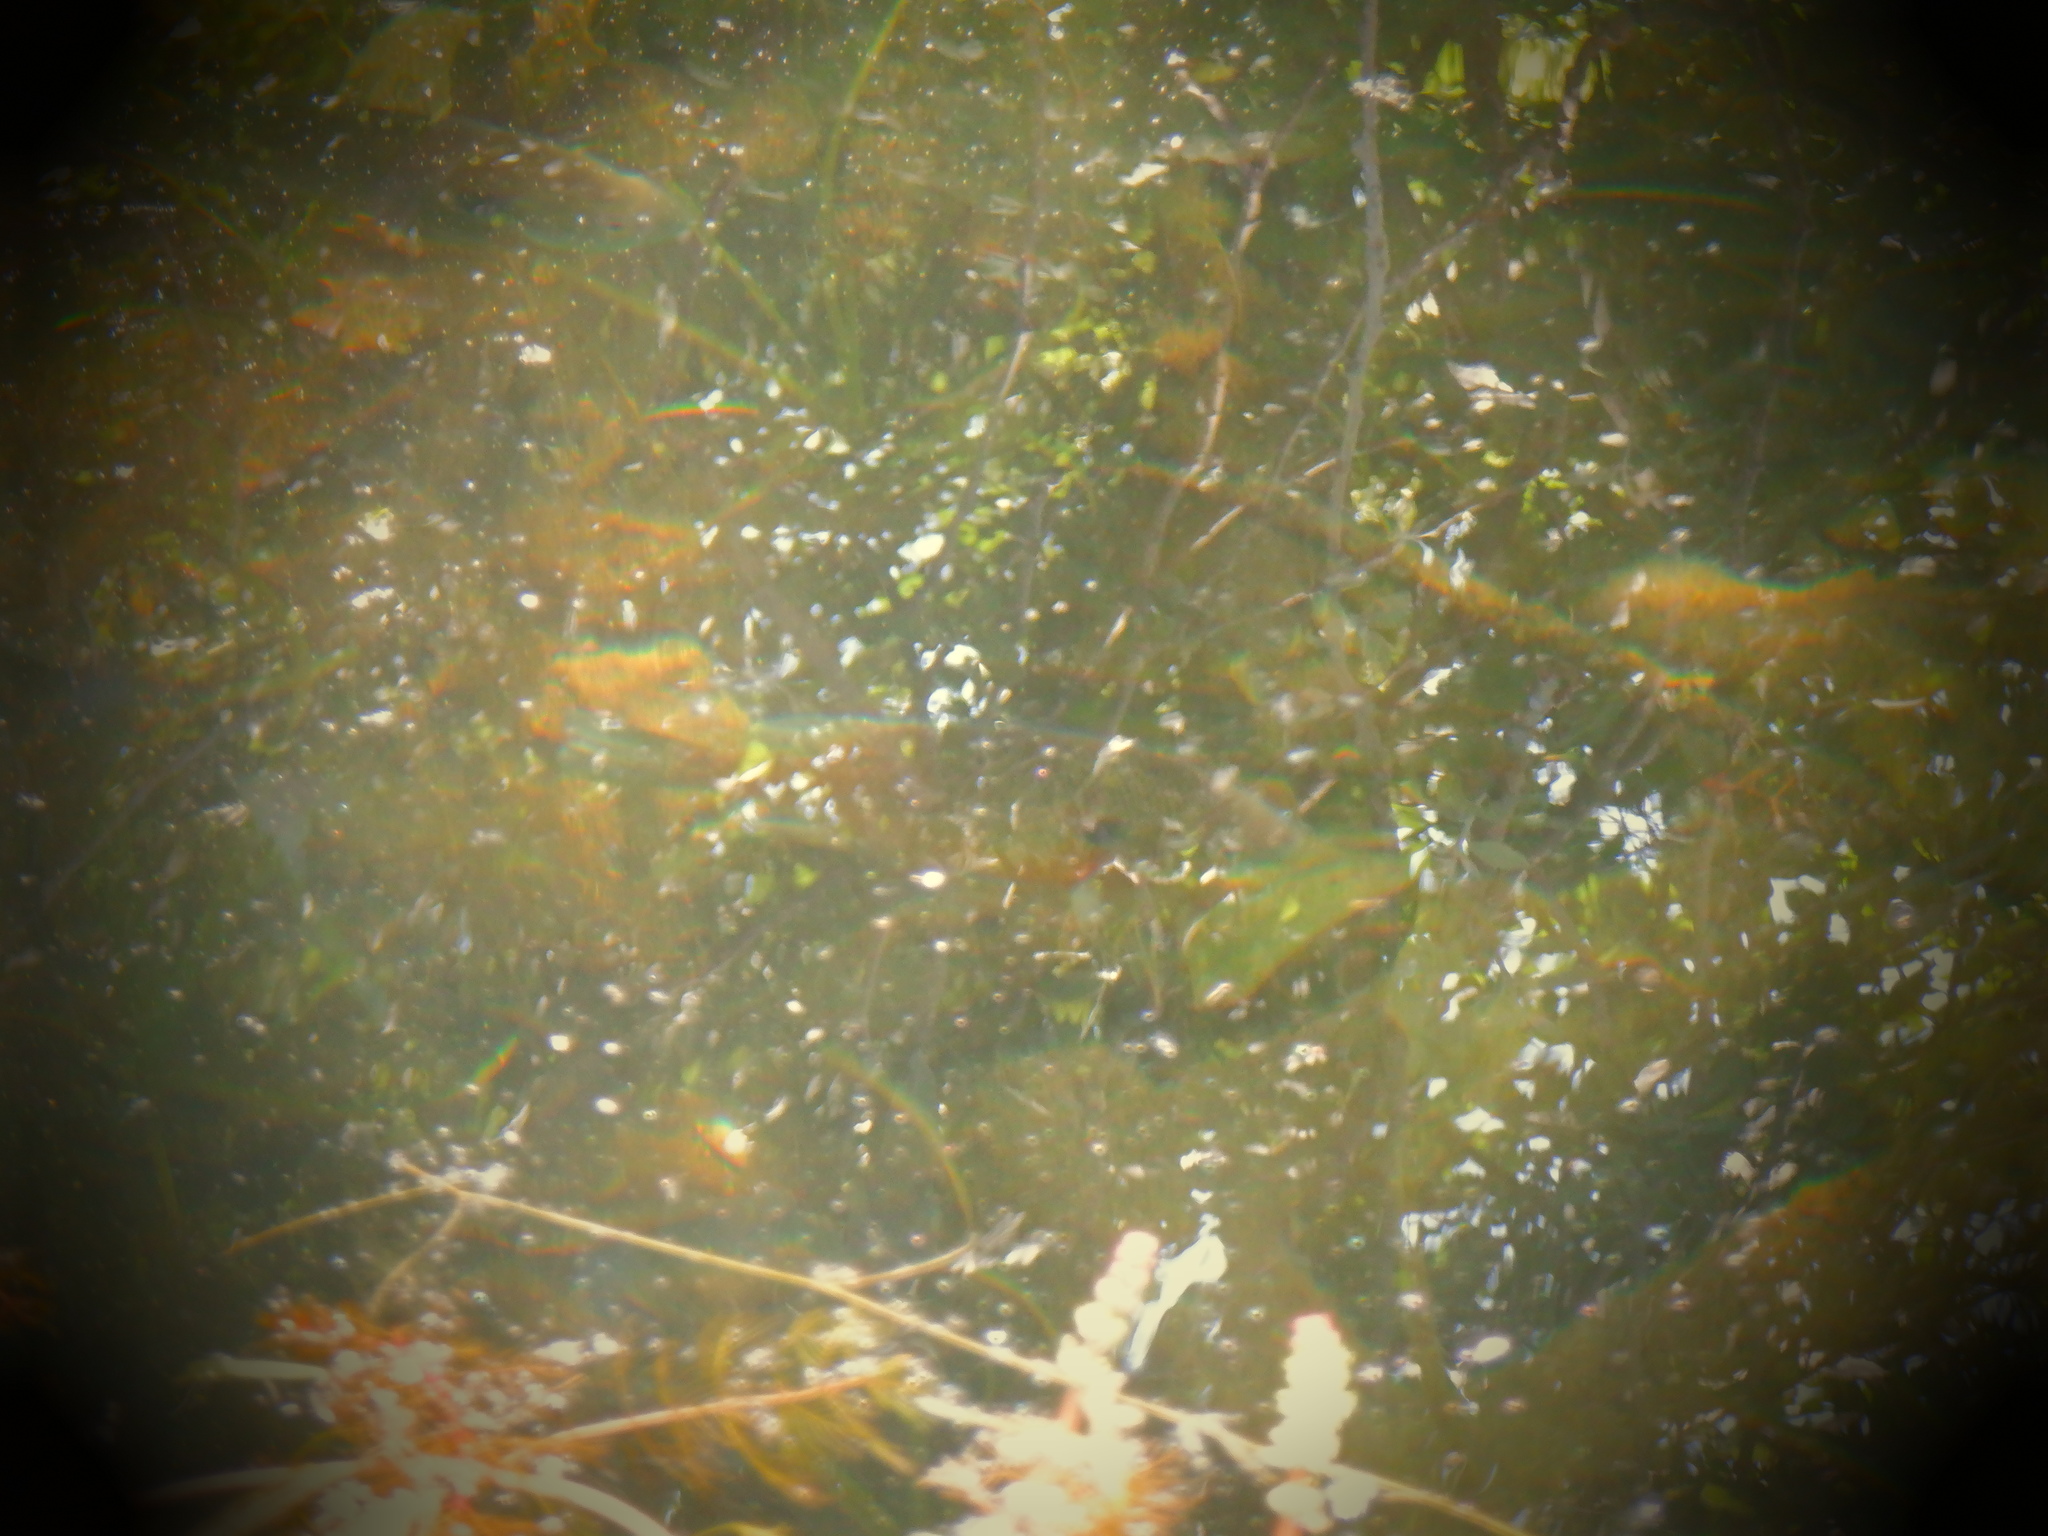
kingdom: Animalia
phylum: Chordata
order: Perciformes
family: Centrarchidae
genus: Lepomis
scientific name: Lepomis macrochirus
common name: Bluegill
